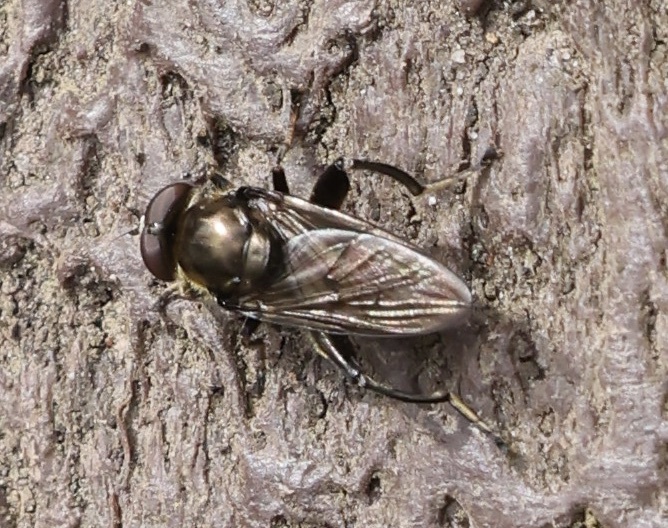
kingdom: Animalia
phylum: Arthropoda
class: Insecta
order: Diptera
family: Syrphidae
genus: Chalcosyrphus
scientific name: Chalcosyrphus nemorum
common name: Dusky-banded forest fly
